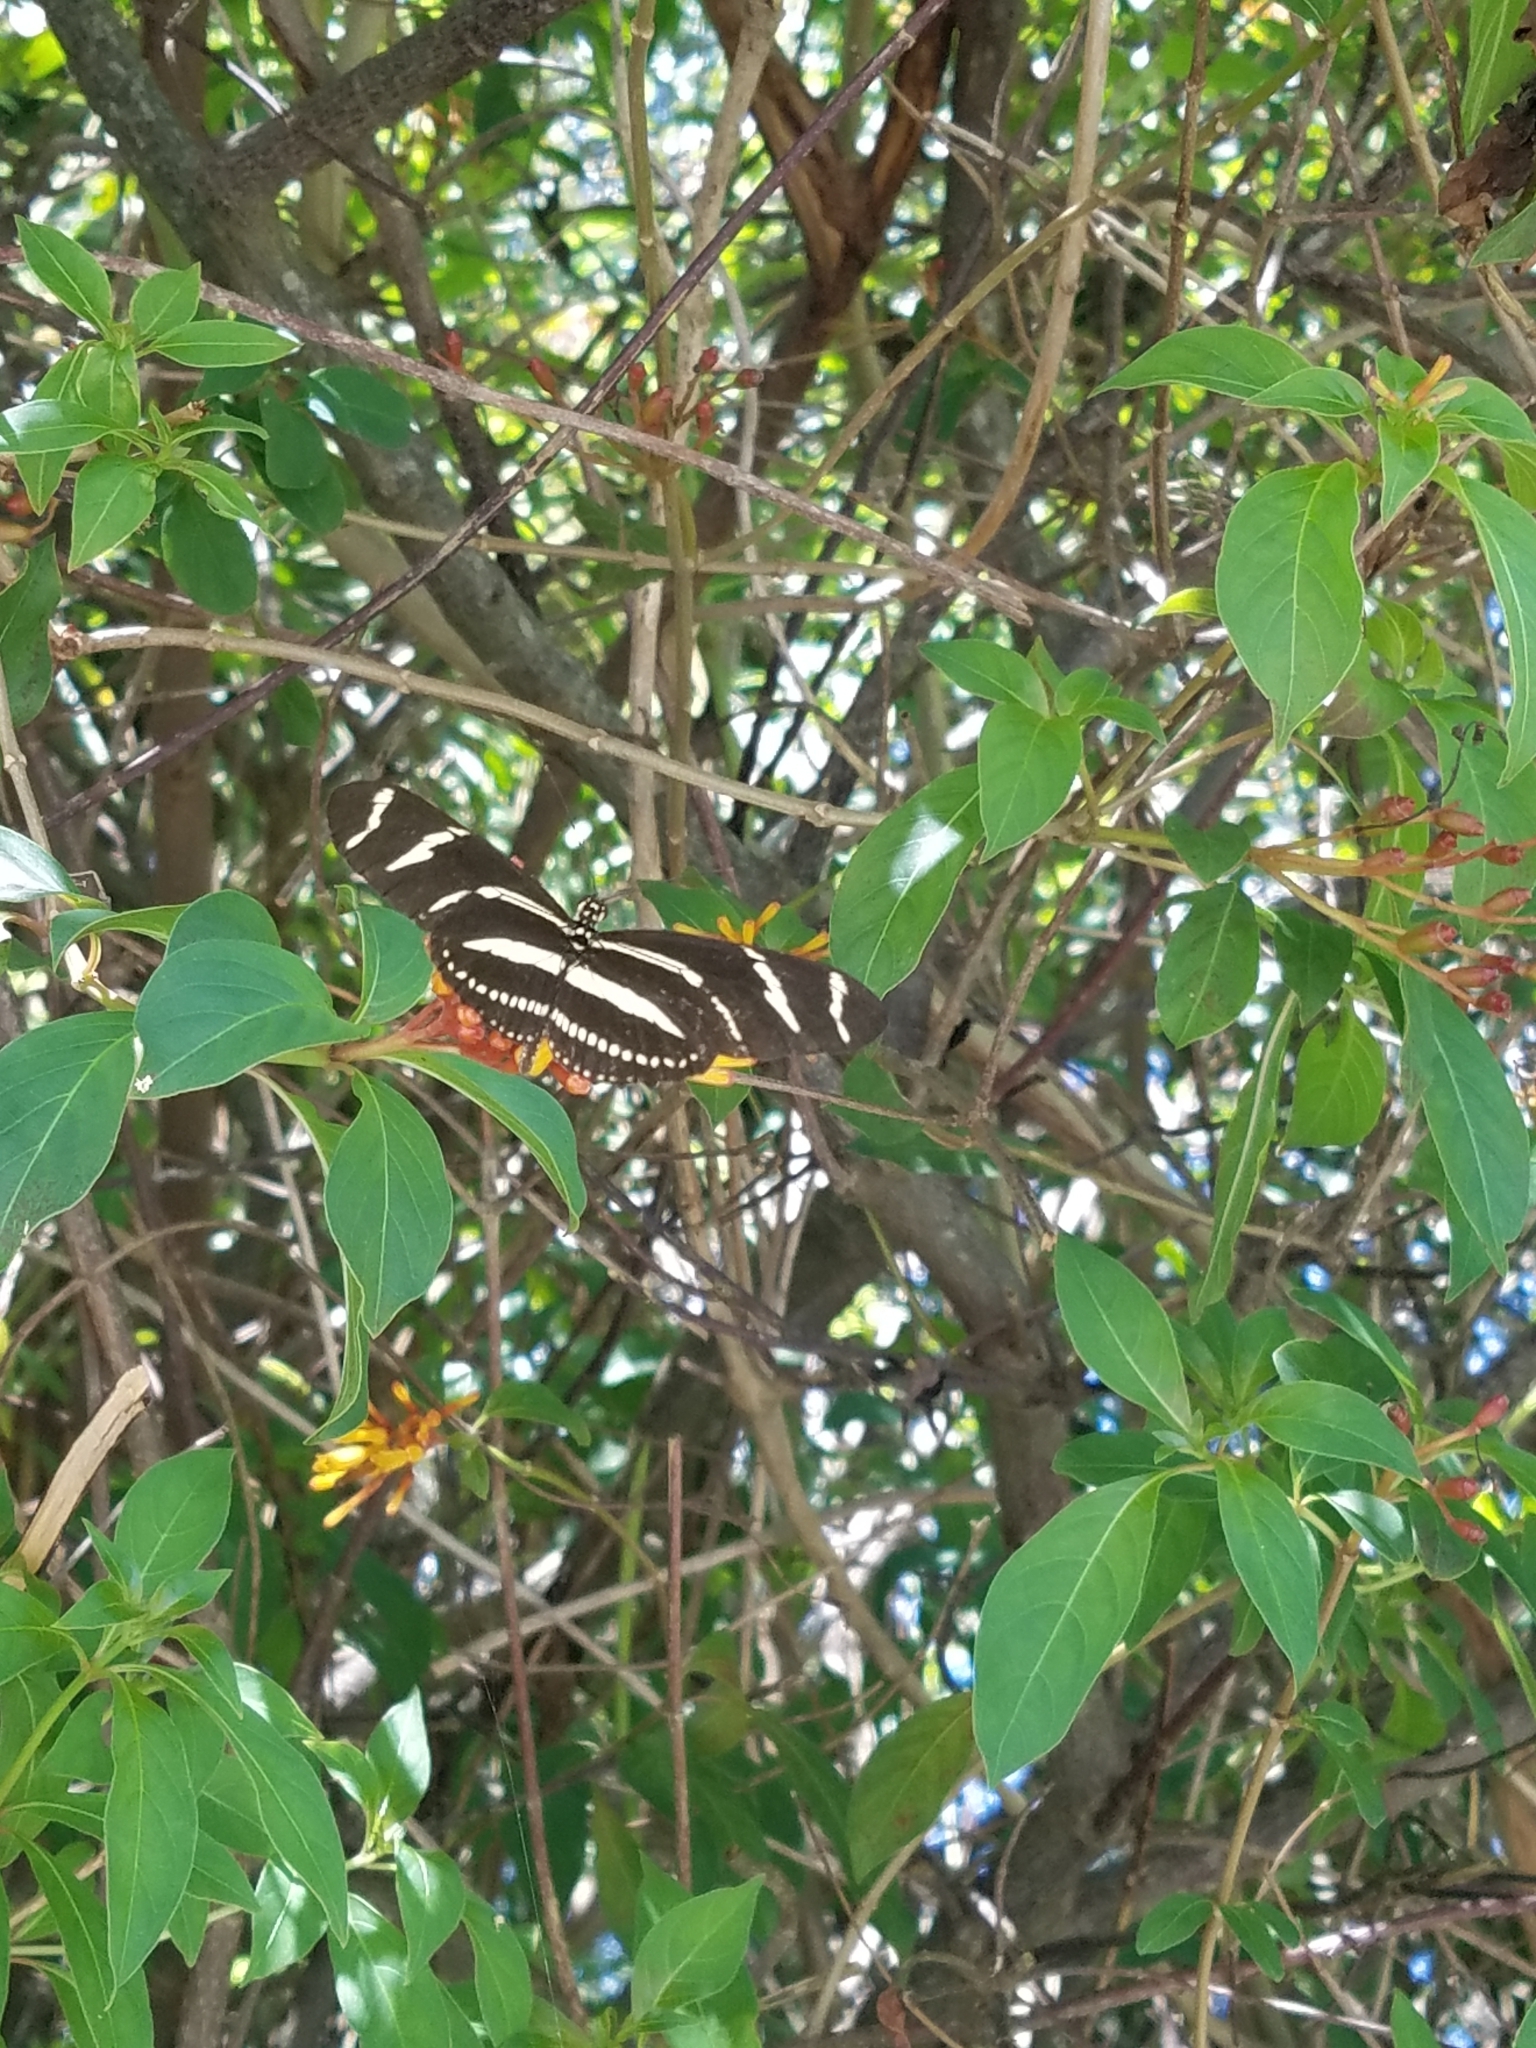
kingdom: Animalia
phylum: Arthropoda
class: Insecta
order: Lepidoptera
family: Nymphalidae
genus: Heliconius
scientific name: Heliconius charithonia
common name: Zebra long wing
